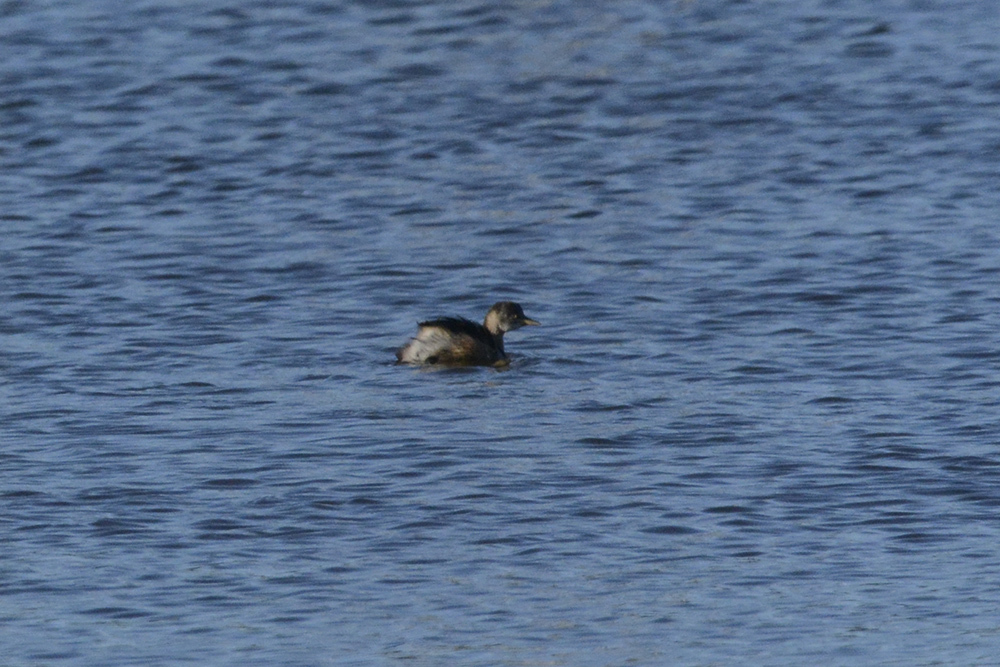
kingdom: Animalia
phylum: Chordata
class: Aves
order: Podicipediformes
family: Podicipedidae
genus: Tachybaptus
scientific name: Tachybaptus novaehollandiae
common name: Australasian grebe
